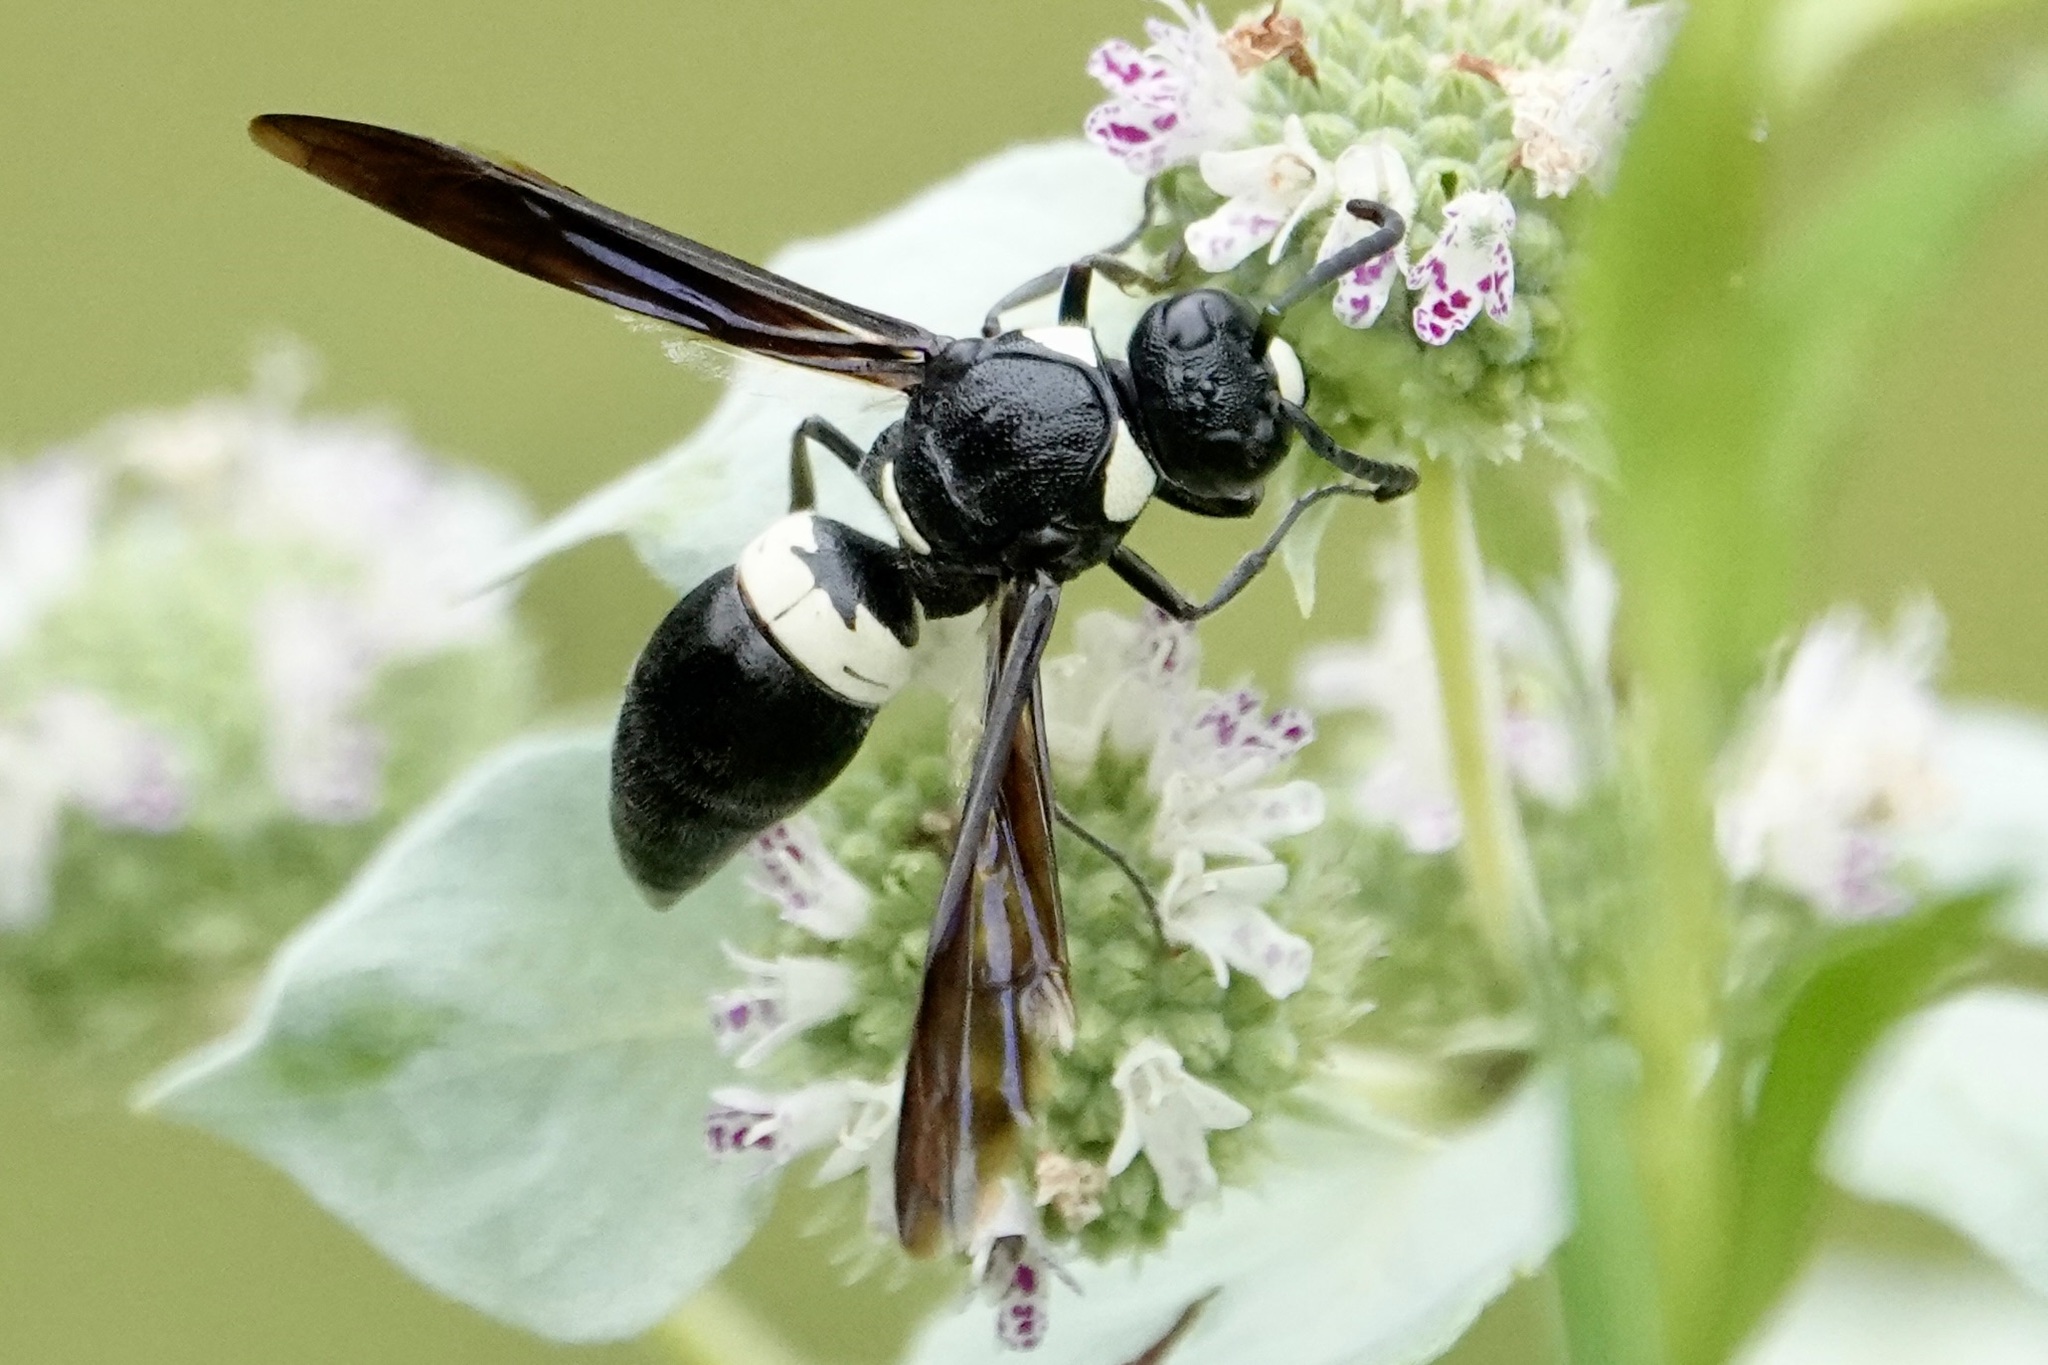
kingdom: Animalia
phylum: Arthropoda
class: Insecta
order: Hymenoptera
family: Eumenidae
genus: Monobia
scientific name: Monobia quadridens
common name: Four-toothed mason wasp
